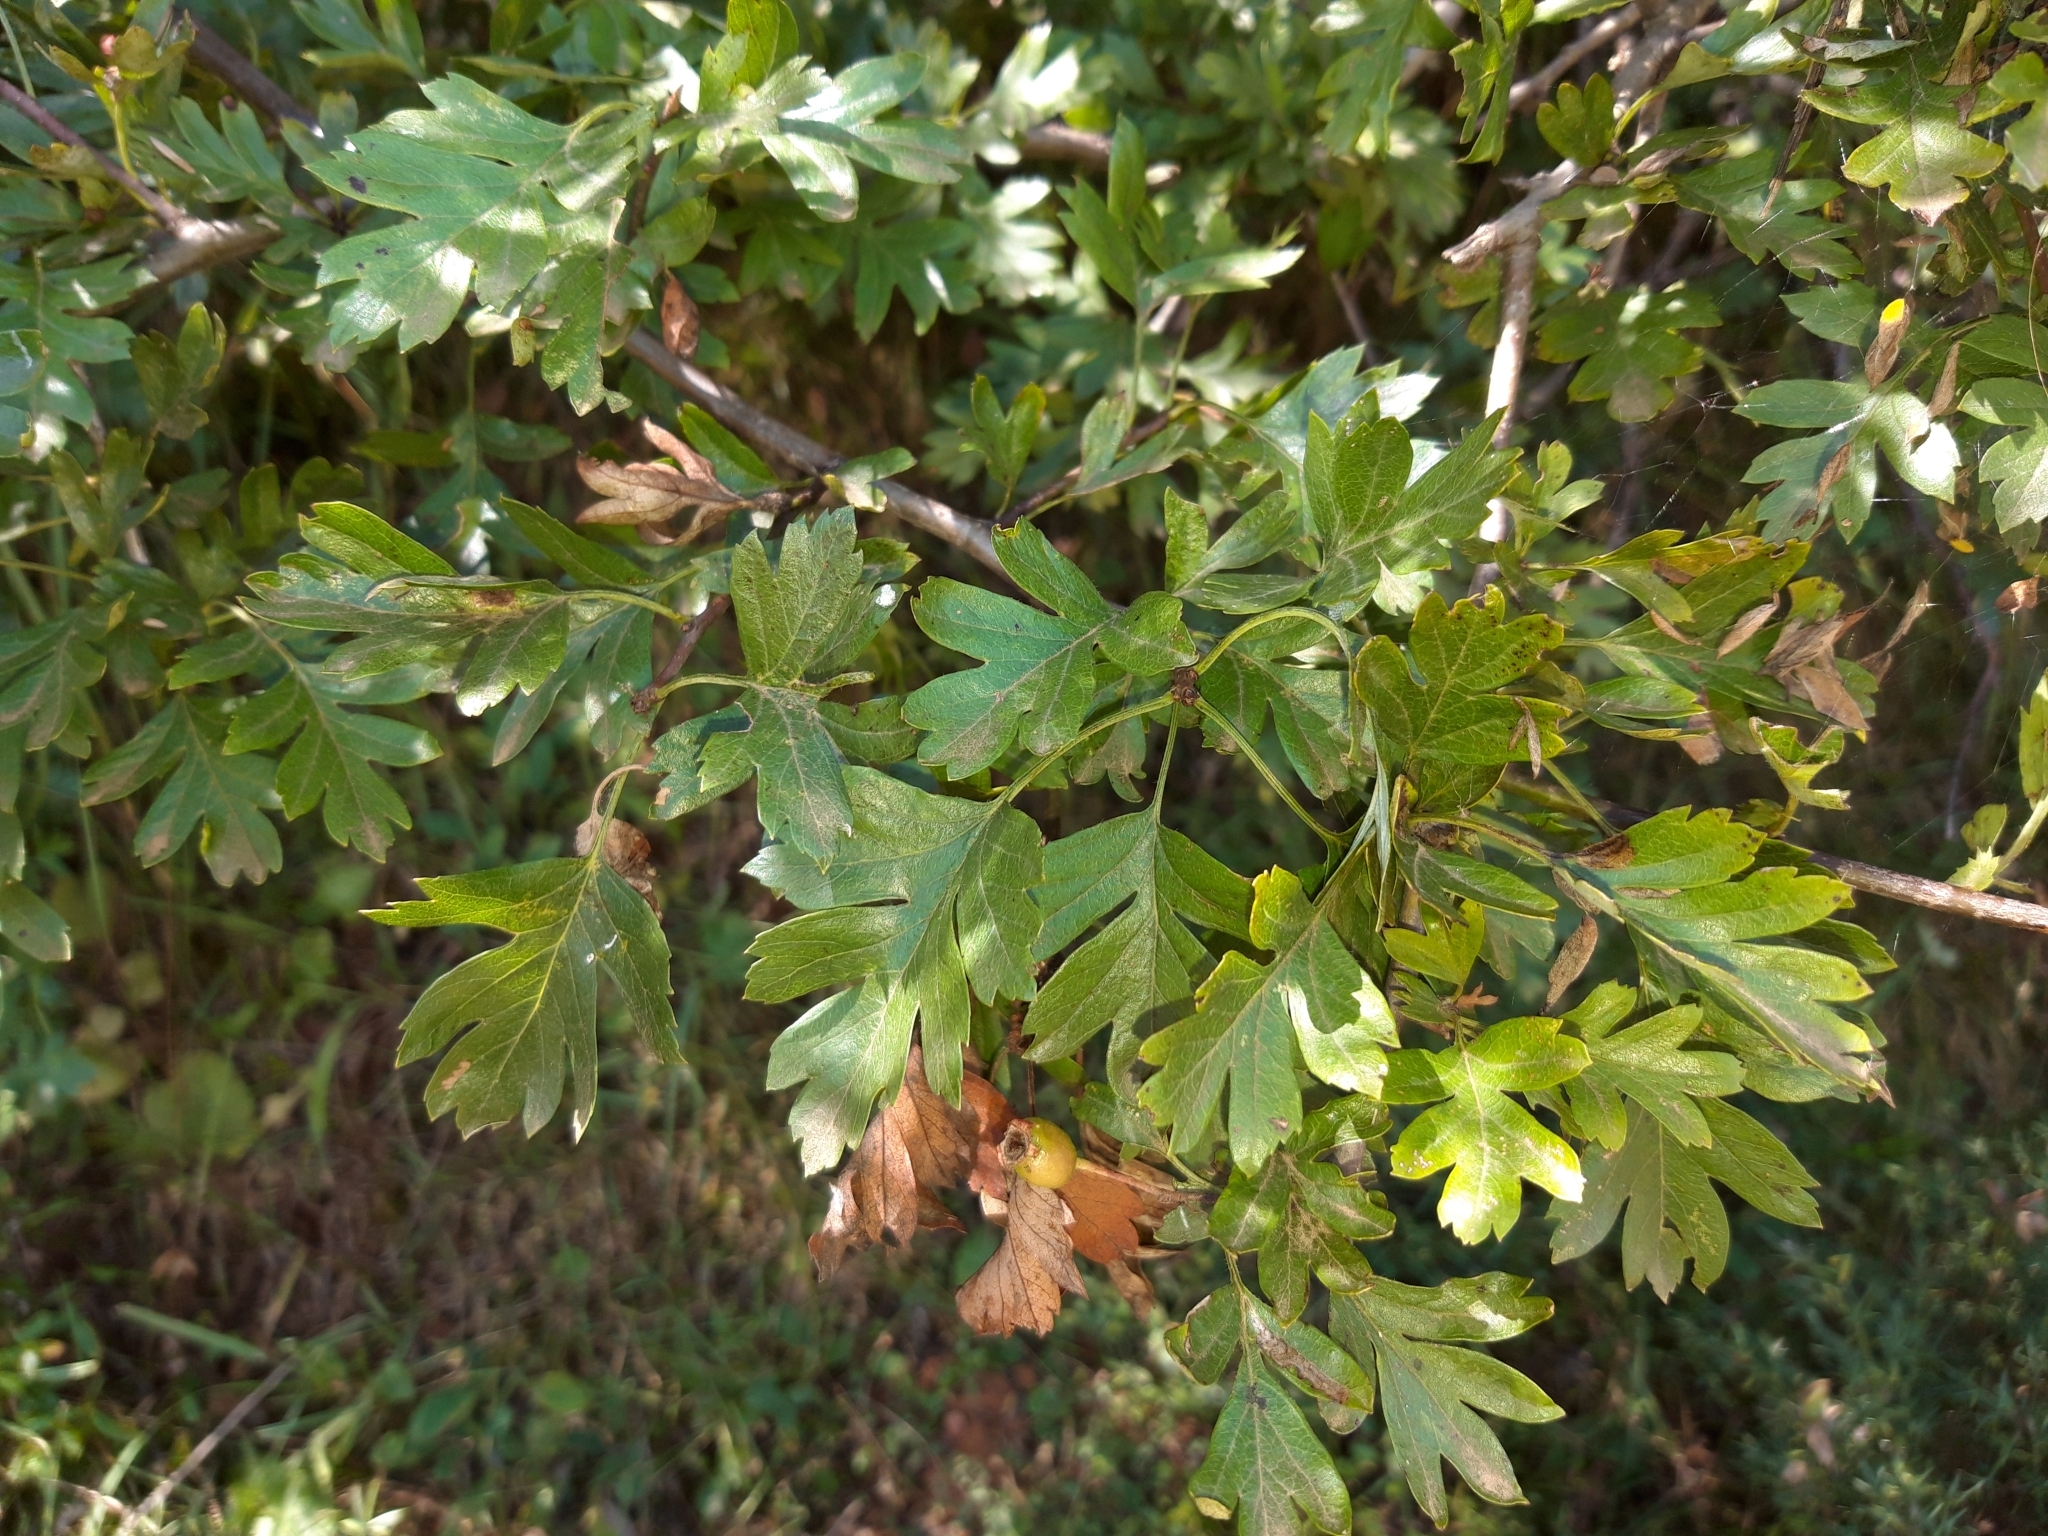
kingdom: Plantae
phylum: Tracheophyta
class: Magnoliopsida
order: Rosales
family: Rosaceae
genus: Crataegus
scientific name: Crataegus monogyna
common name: Hawthorn
